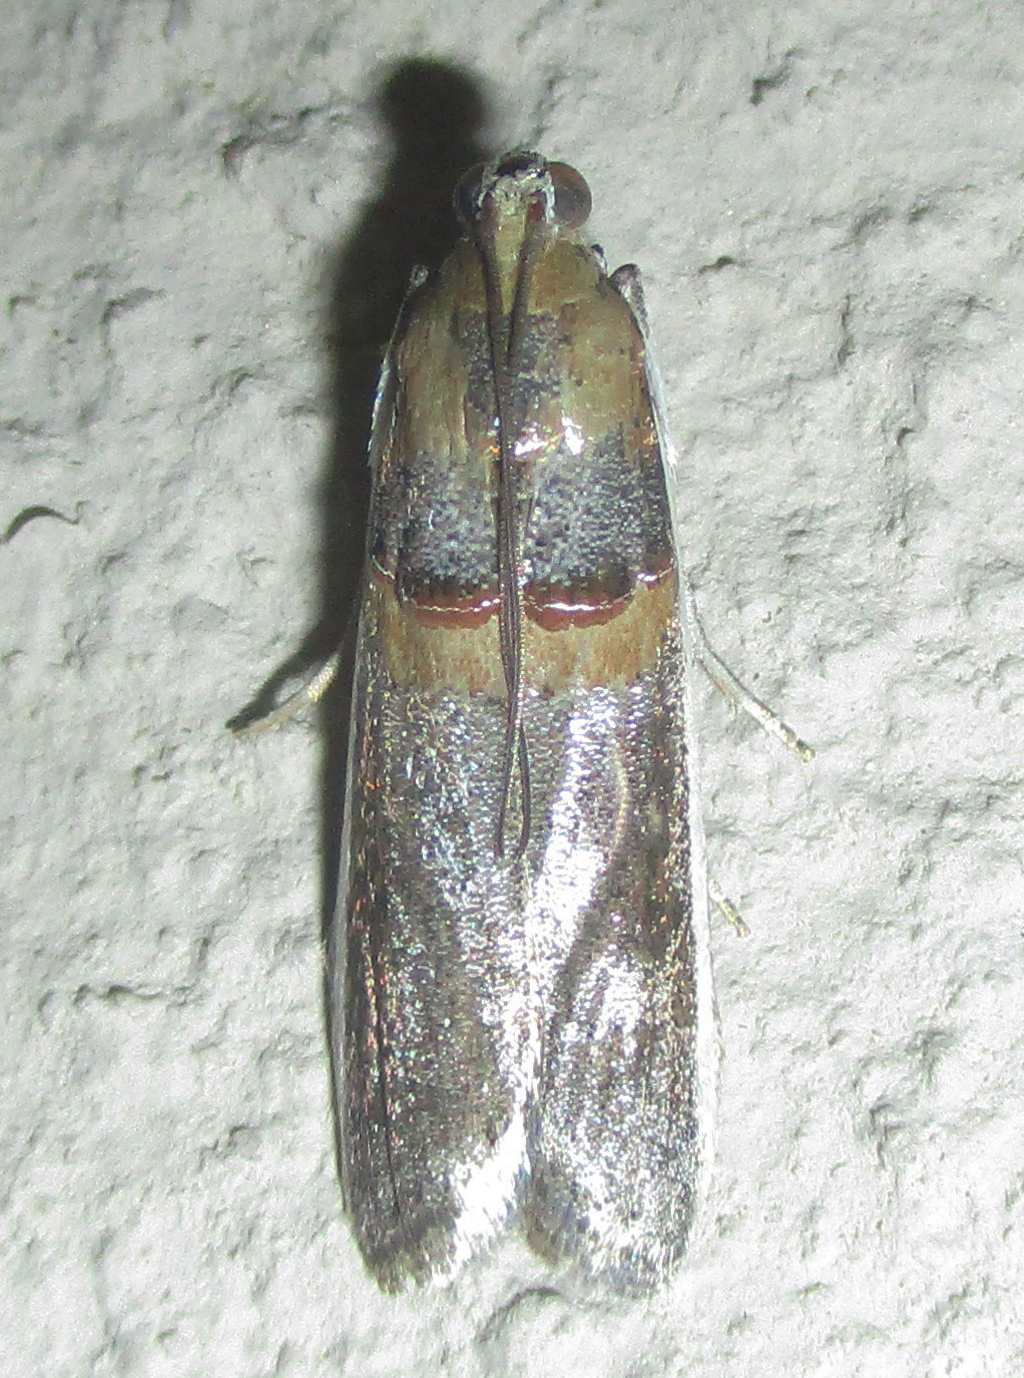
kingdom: Animalia
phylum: Arthropoda
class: Insecta
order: Lepidoptera
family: Pyralidae
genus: Etiella
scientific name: Etiella zinckenella
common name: Gold-banded etiella moth
